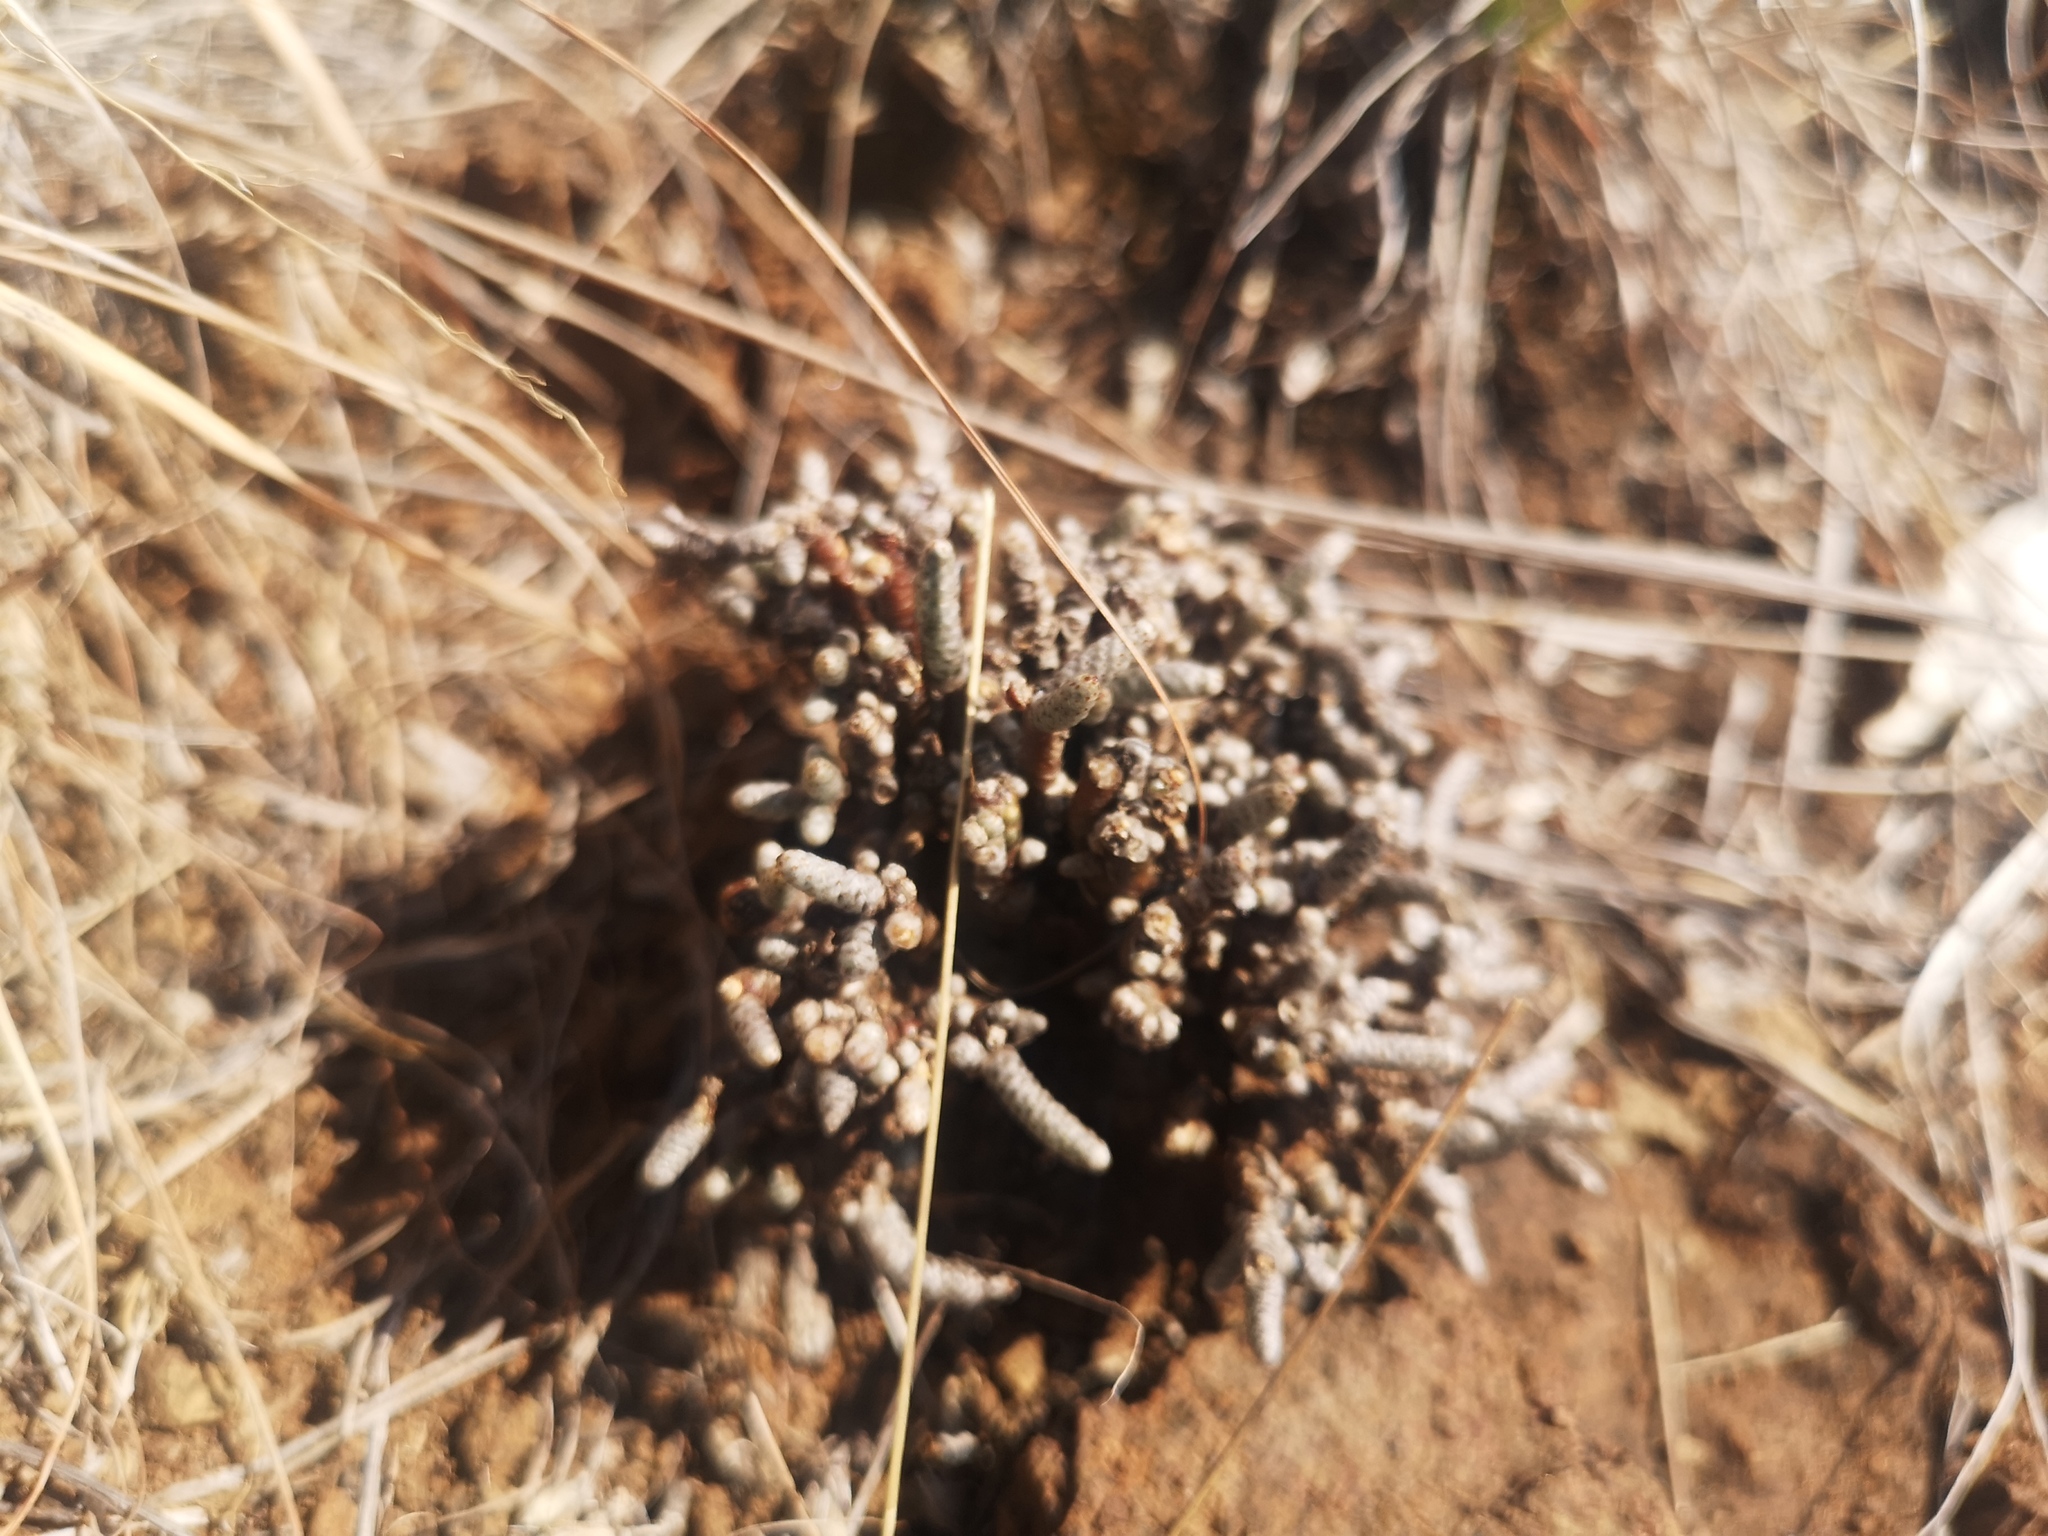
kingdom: Plantae
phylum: Tracheophyta
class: Magnoliopsida
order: Caryophyllales
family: Anacampserotaceae
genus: Avonia
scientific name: Avonia ustulata
